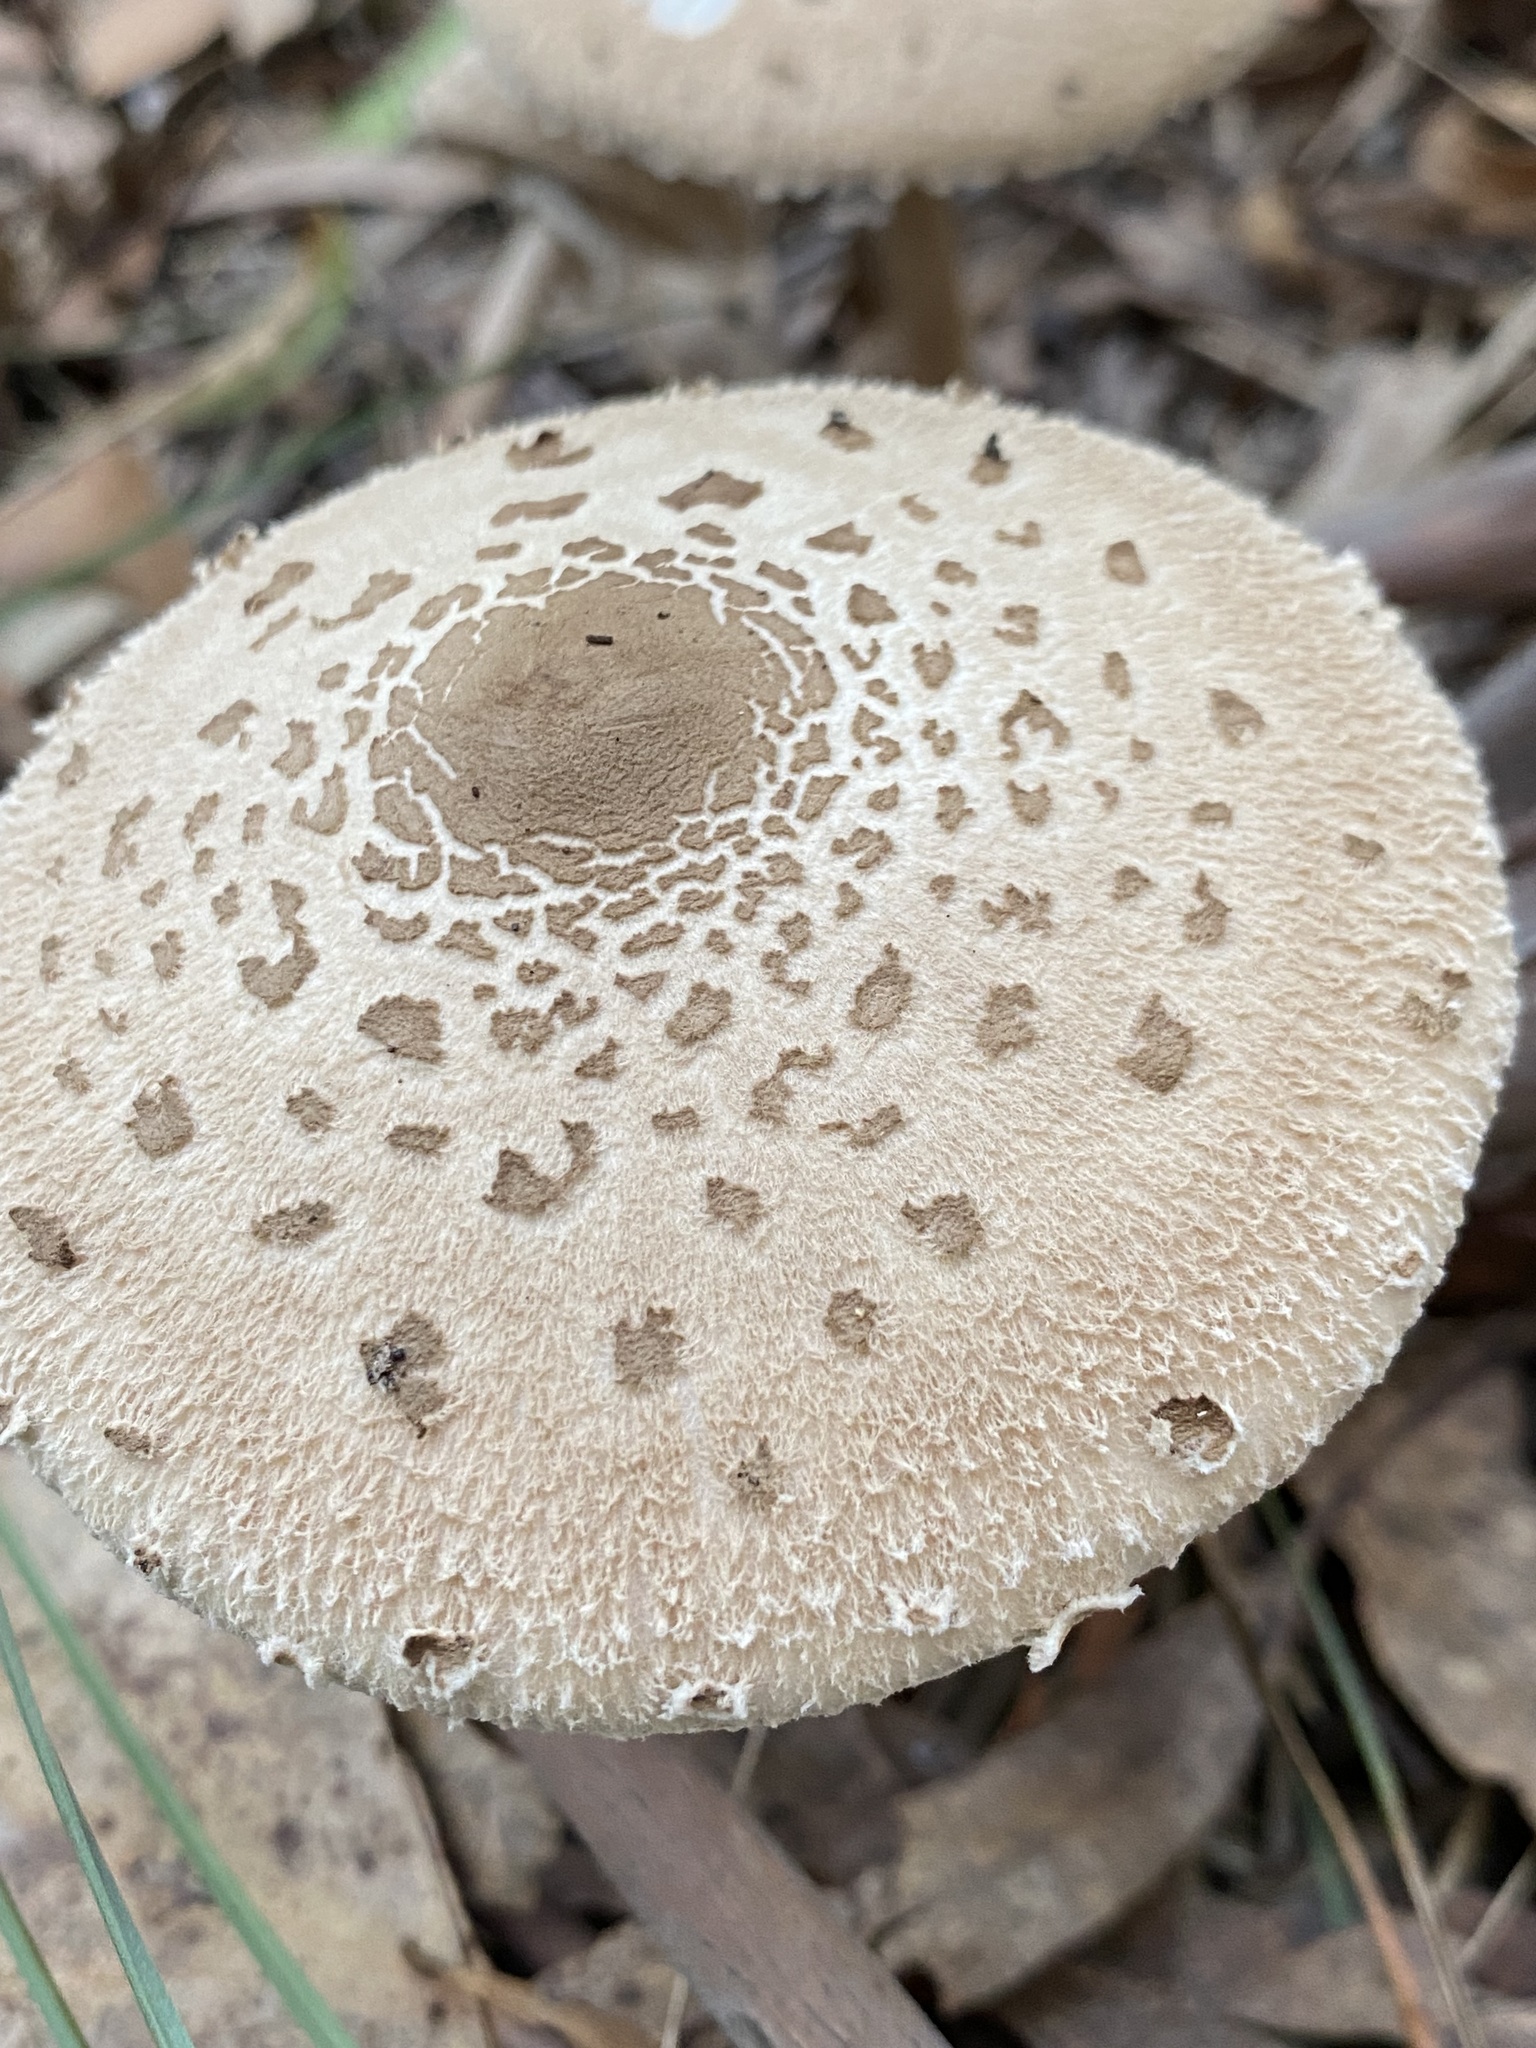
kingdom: Fungi
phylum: Basidiomycota
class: Agaricomycetes
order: Agaricales
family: Agaricaceae
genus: Macrolepiota
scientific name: Macrolepiota clelandii
